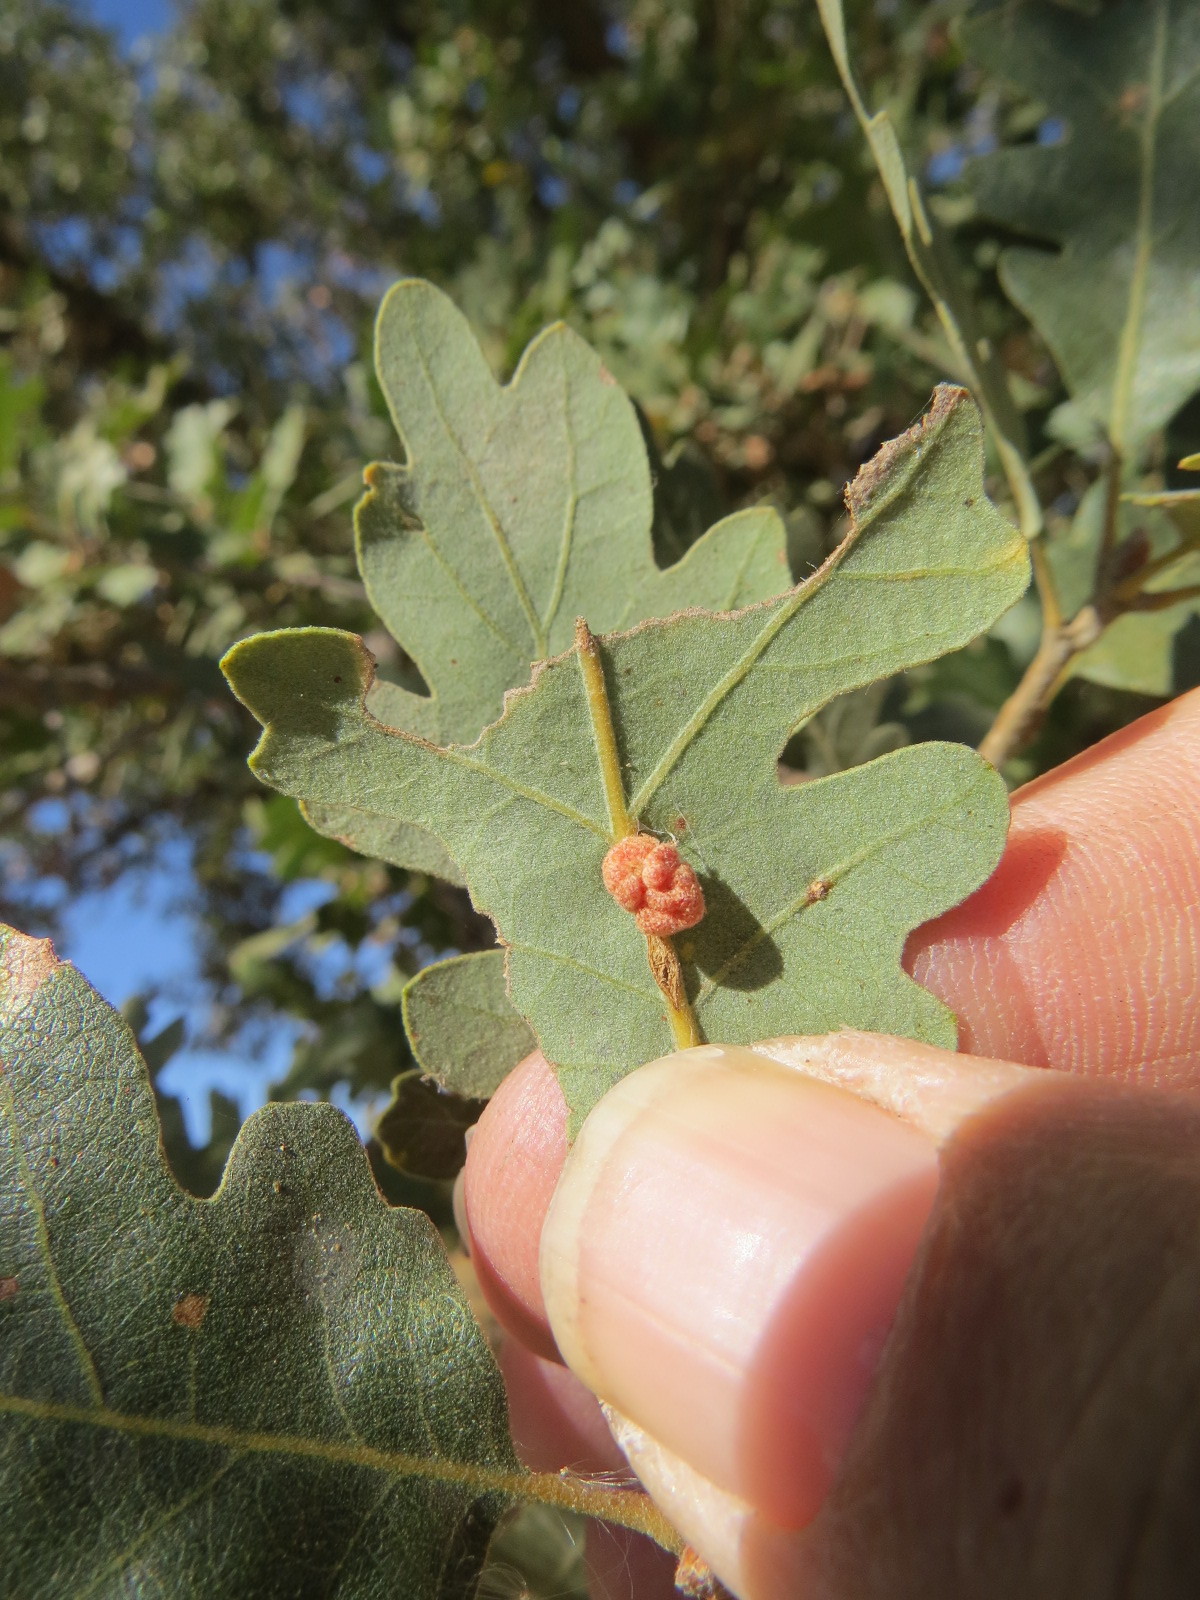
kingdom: Animalia
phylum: Arthropoda
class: Insecta
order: Hymenoptera
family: Cynipidae
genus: Andricus
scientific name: Andricus
